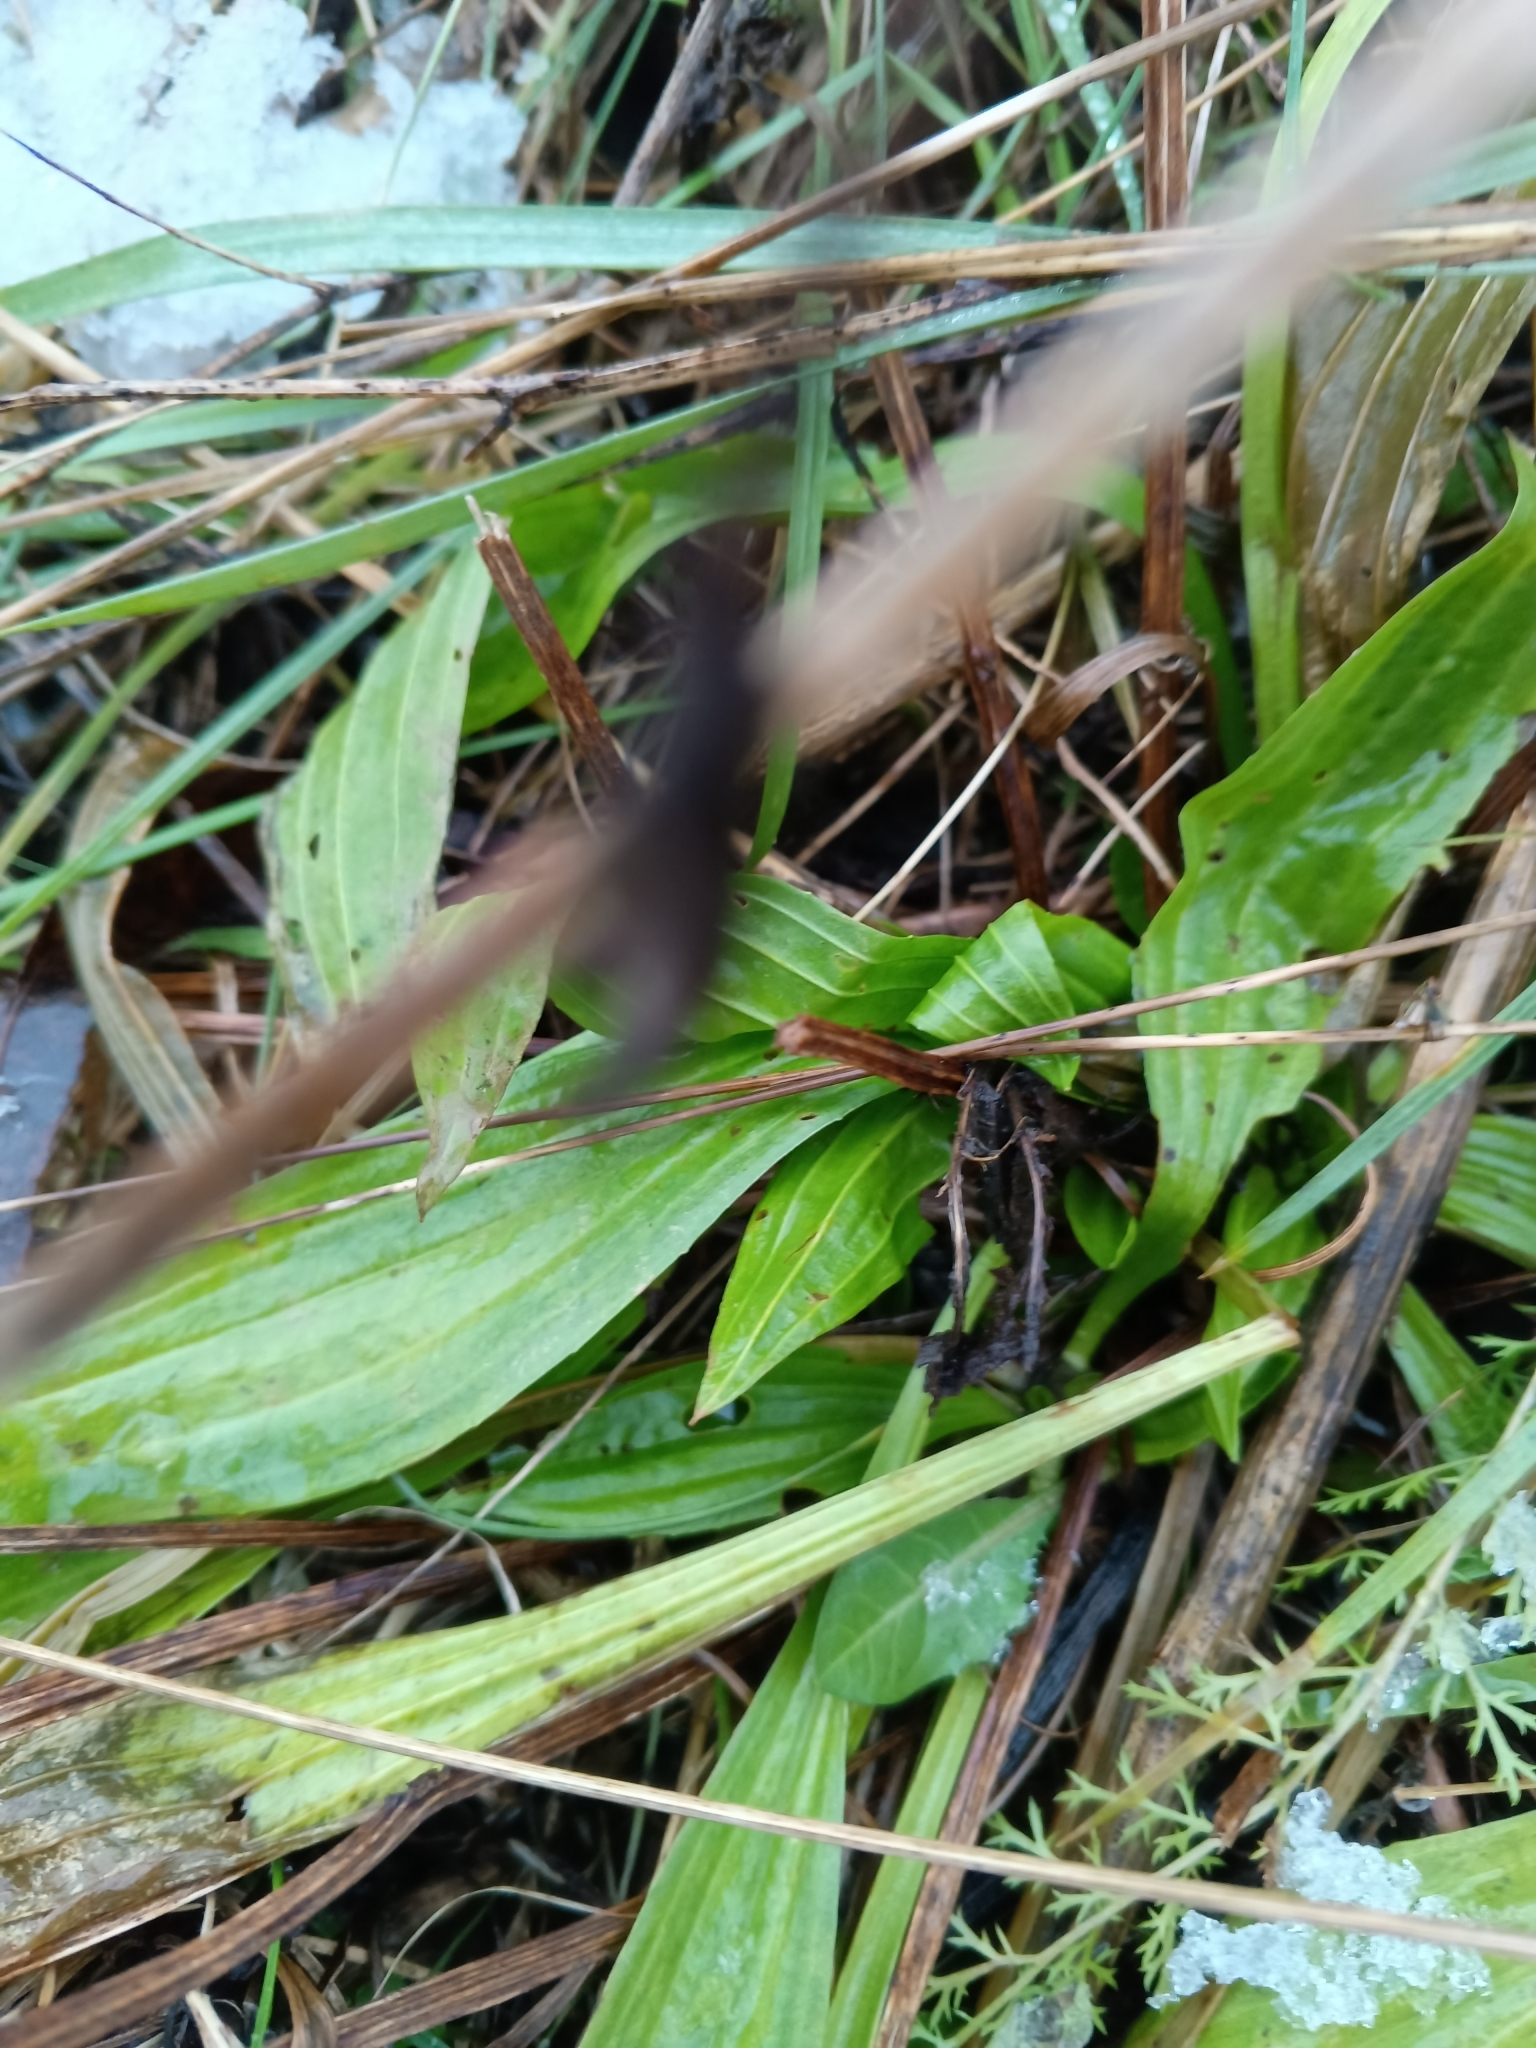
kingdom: Plantae
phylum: Tracheophyta
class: Magnoliopsida
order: Lamiales
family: Plantaginaceae
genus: Plantago
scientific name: Plantago lanceolata
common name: Ribwort plantain
